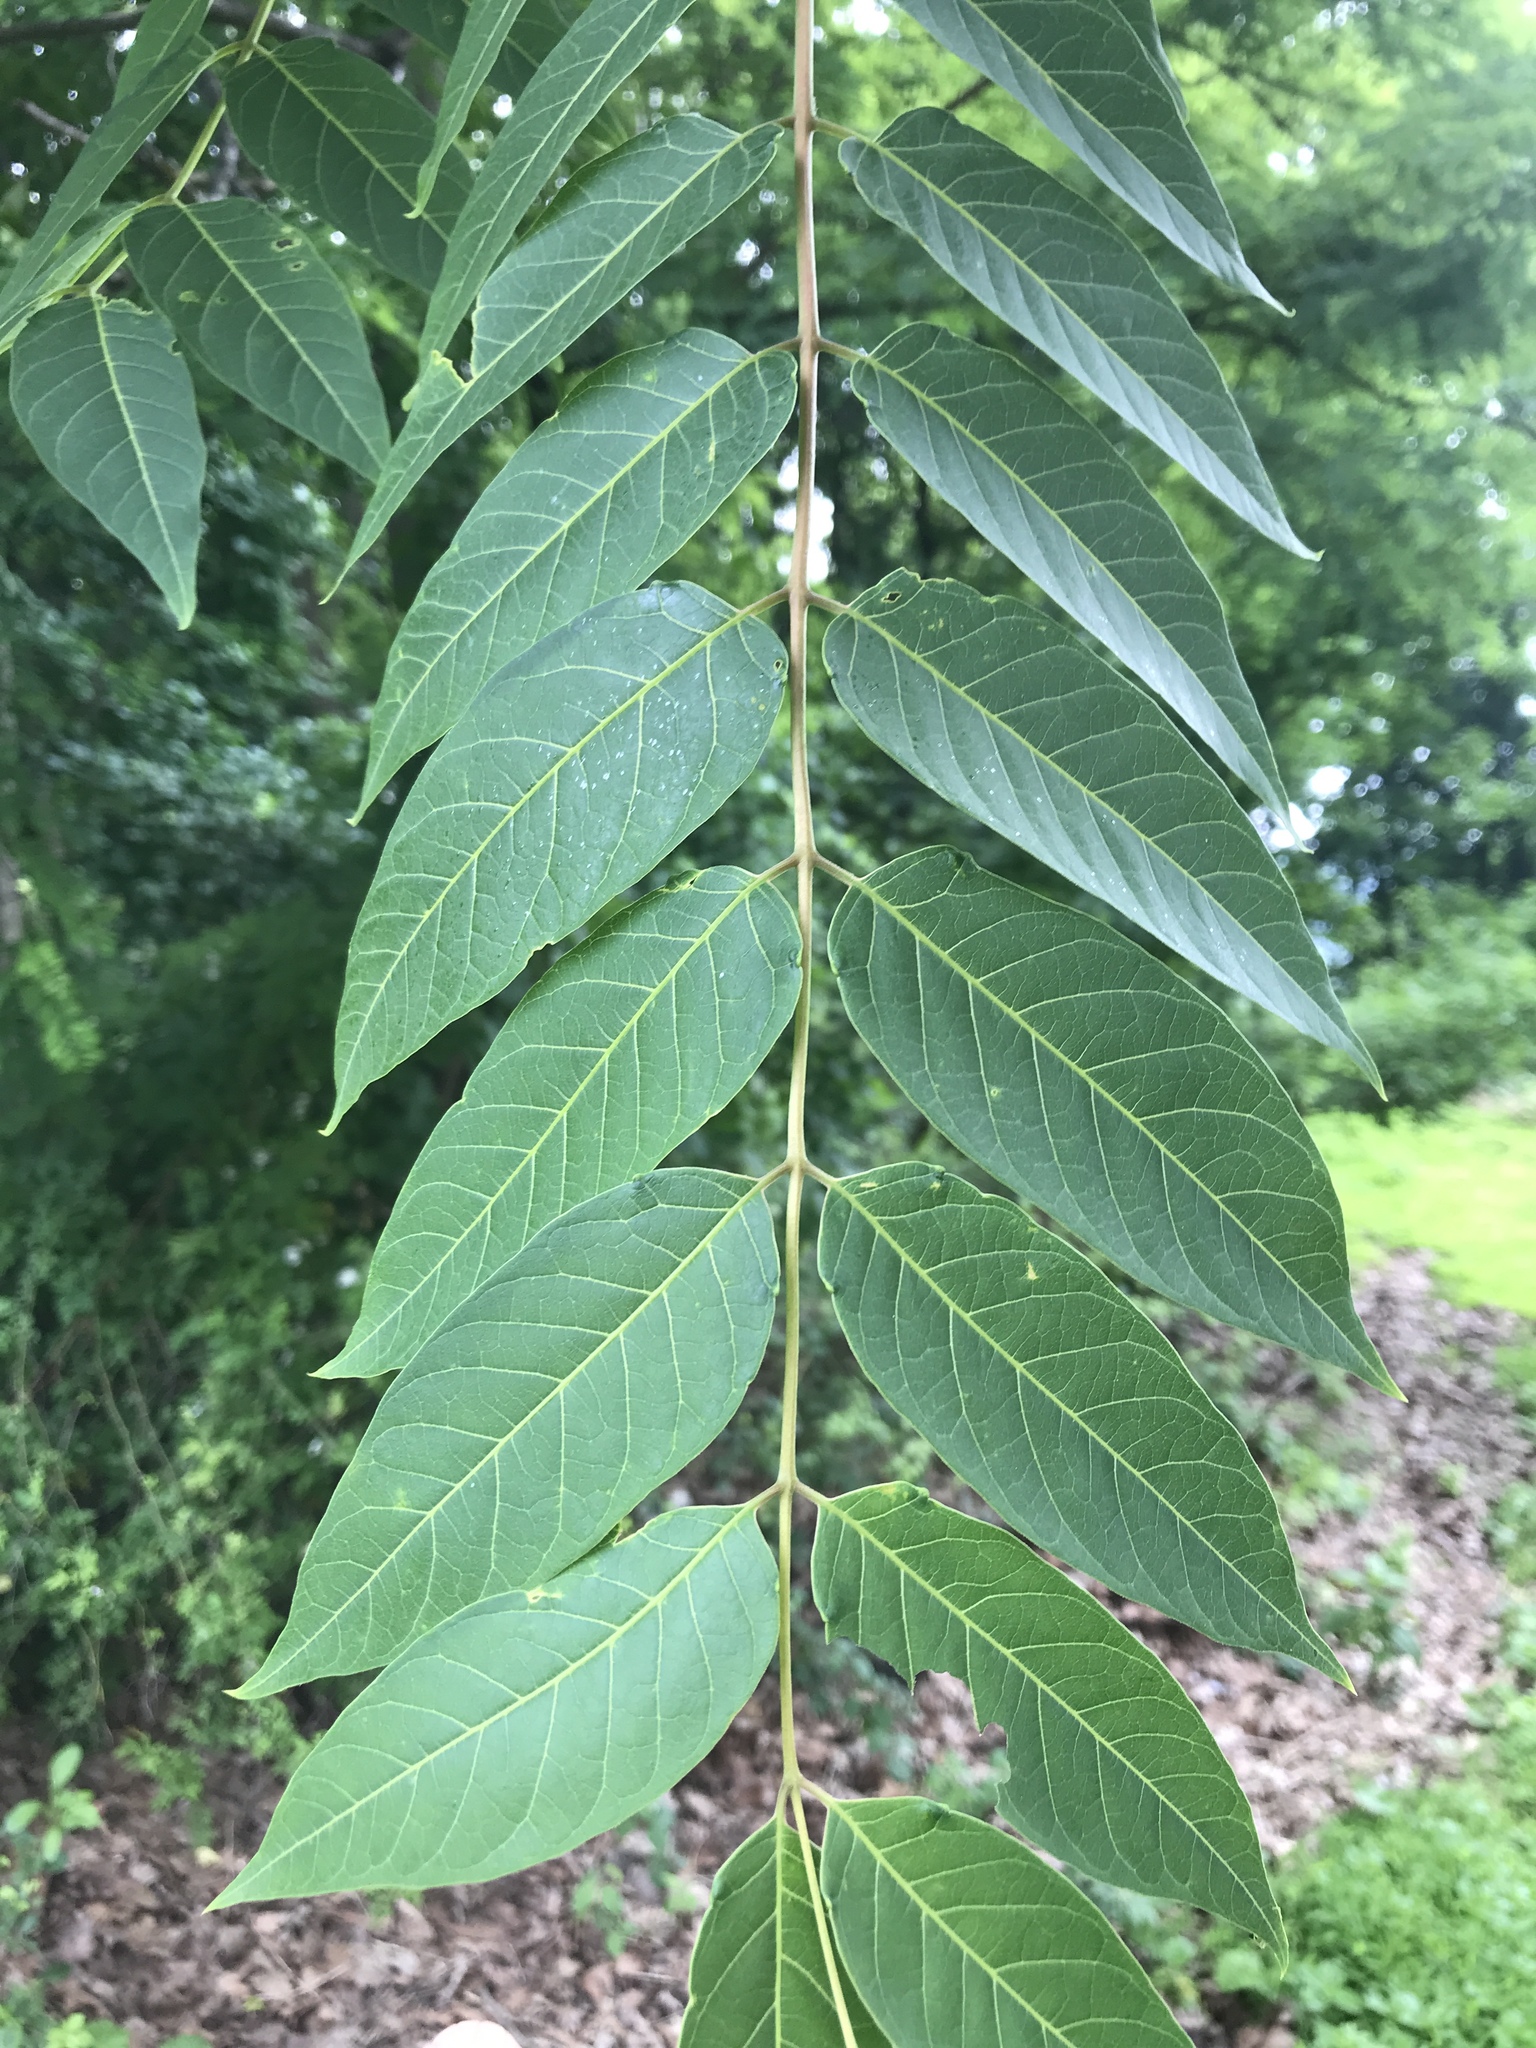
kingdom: Plantae
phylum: Tracheophyta
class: Magnoliopsida
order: Sapindales
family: Simaroubaceae
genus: Ailanthus
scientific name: Ailanthus altissima
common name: Tree-of-heaven
